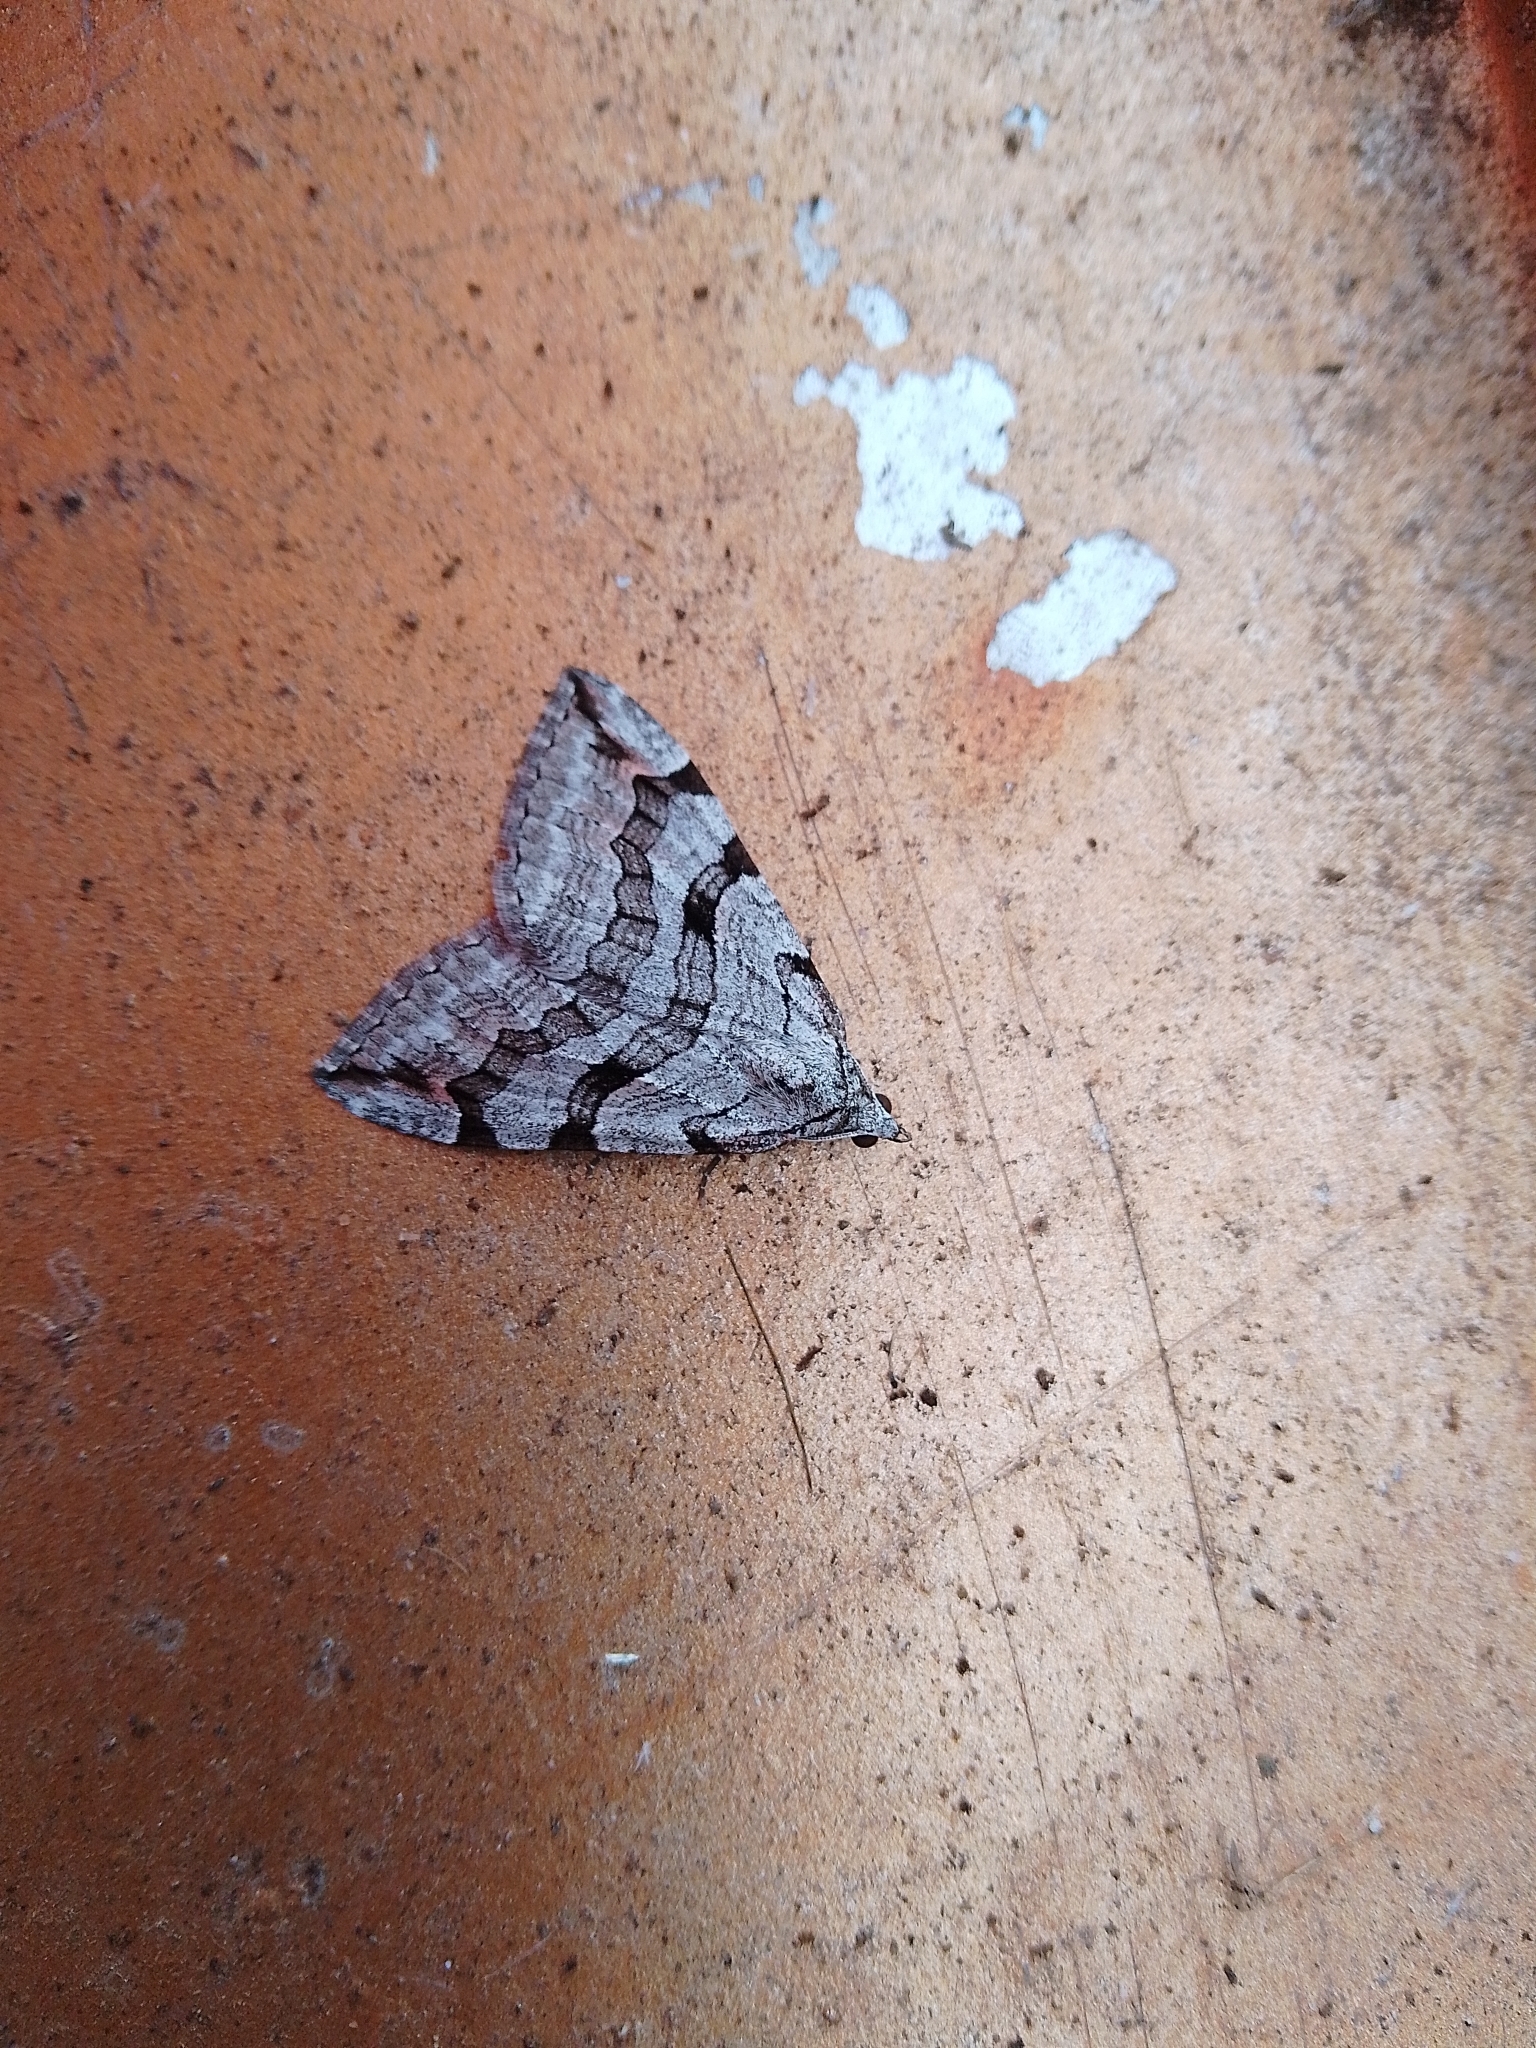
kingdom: Animalia
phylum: Arthropoda
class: Insecta
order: Lepidoptera
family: Geometridae
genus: Aplocera
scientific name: Aplocera plagiata
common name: Treble-bar
